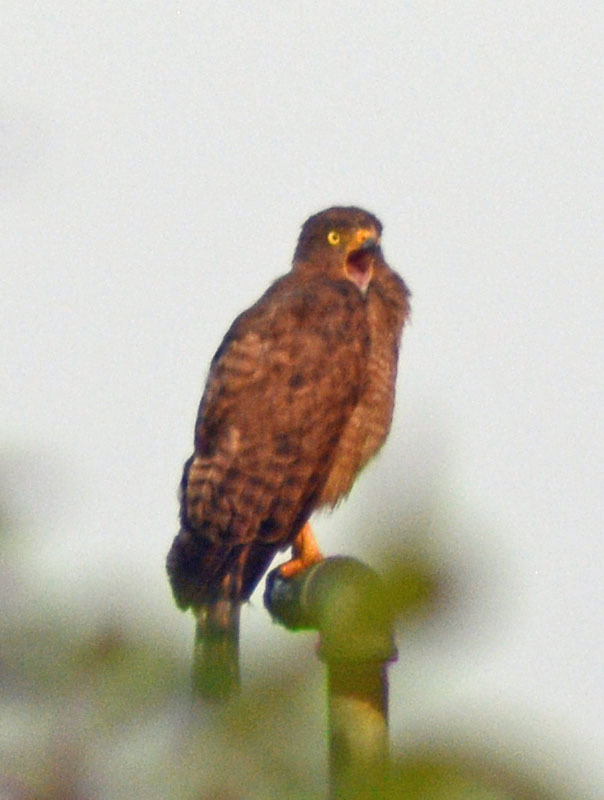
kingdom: Animalia
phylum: Chordata
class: Aves
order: Accipitriformes
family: Accipitridae
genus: Rupornis
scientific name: Rupornis magnirostris
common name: Roadside hawk
